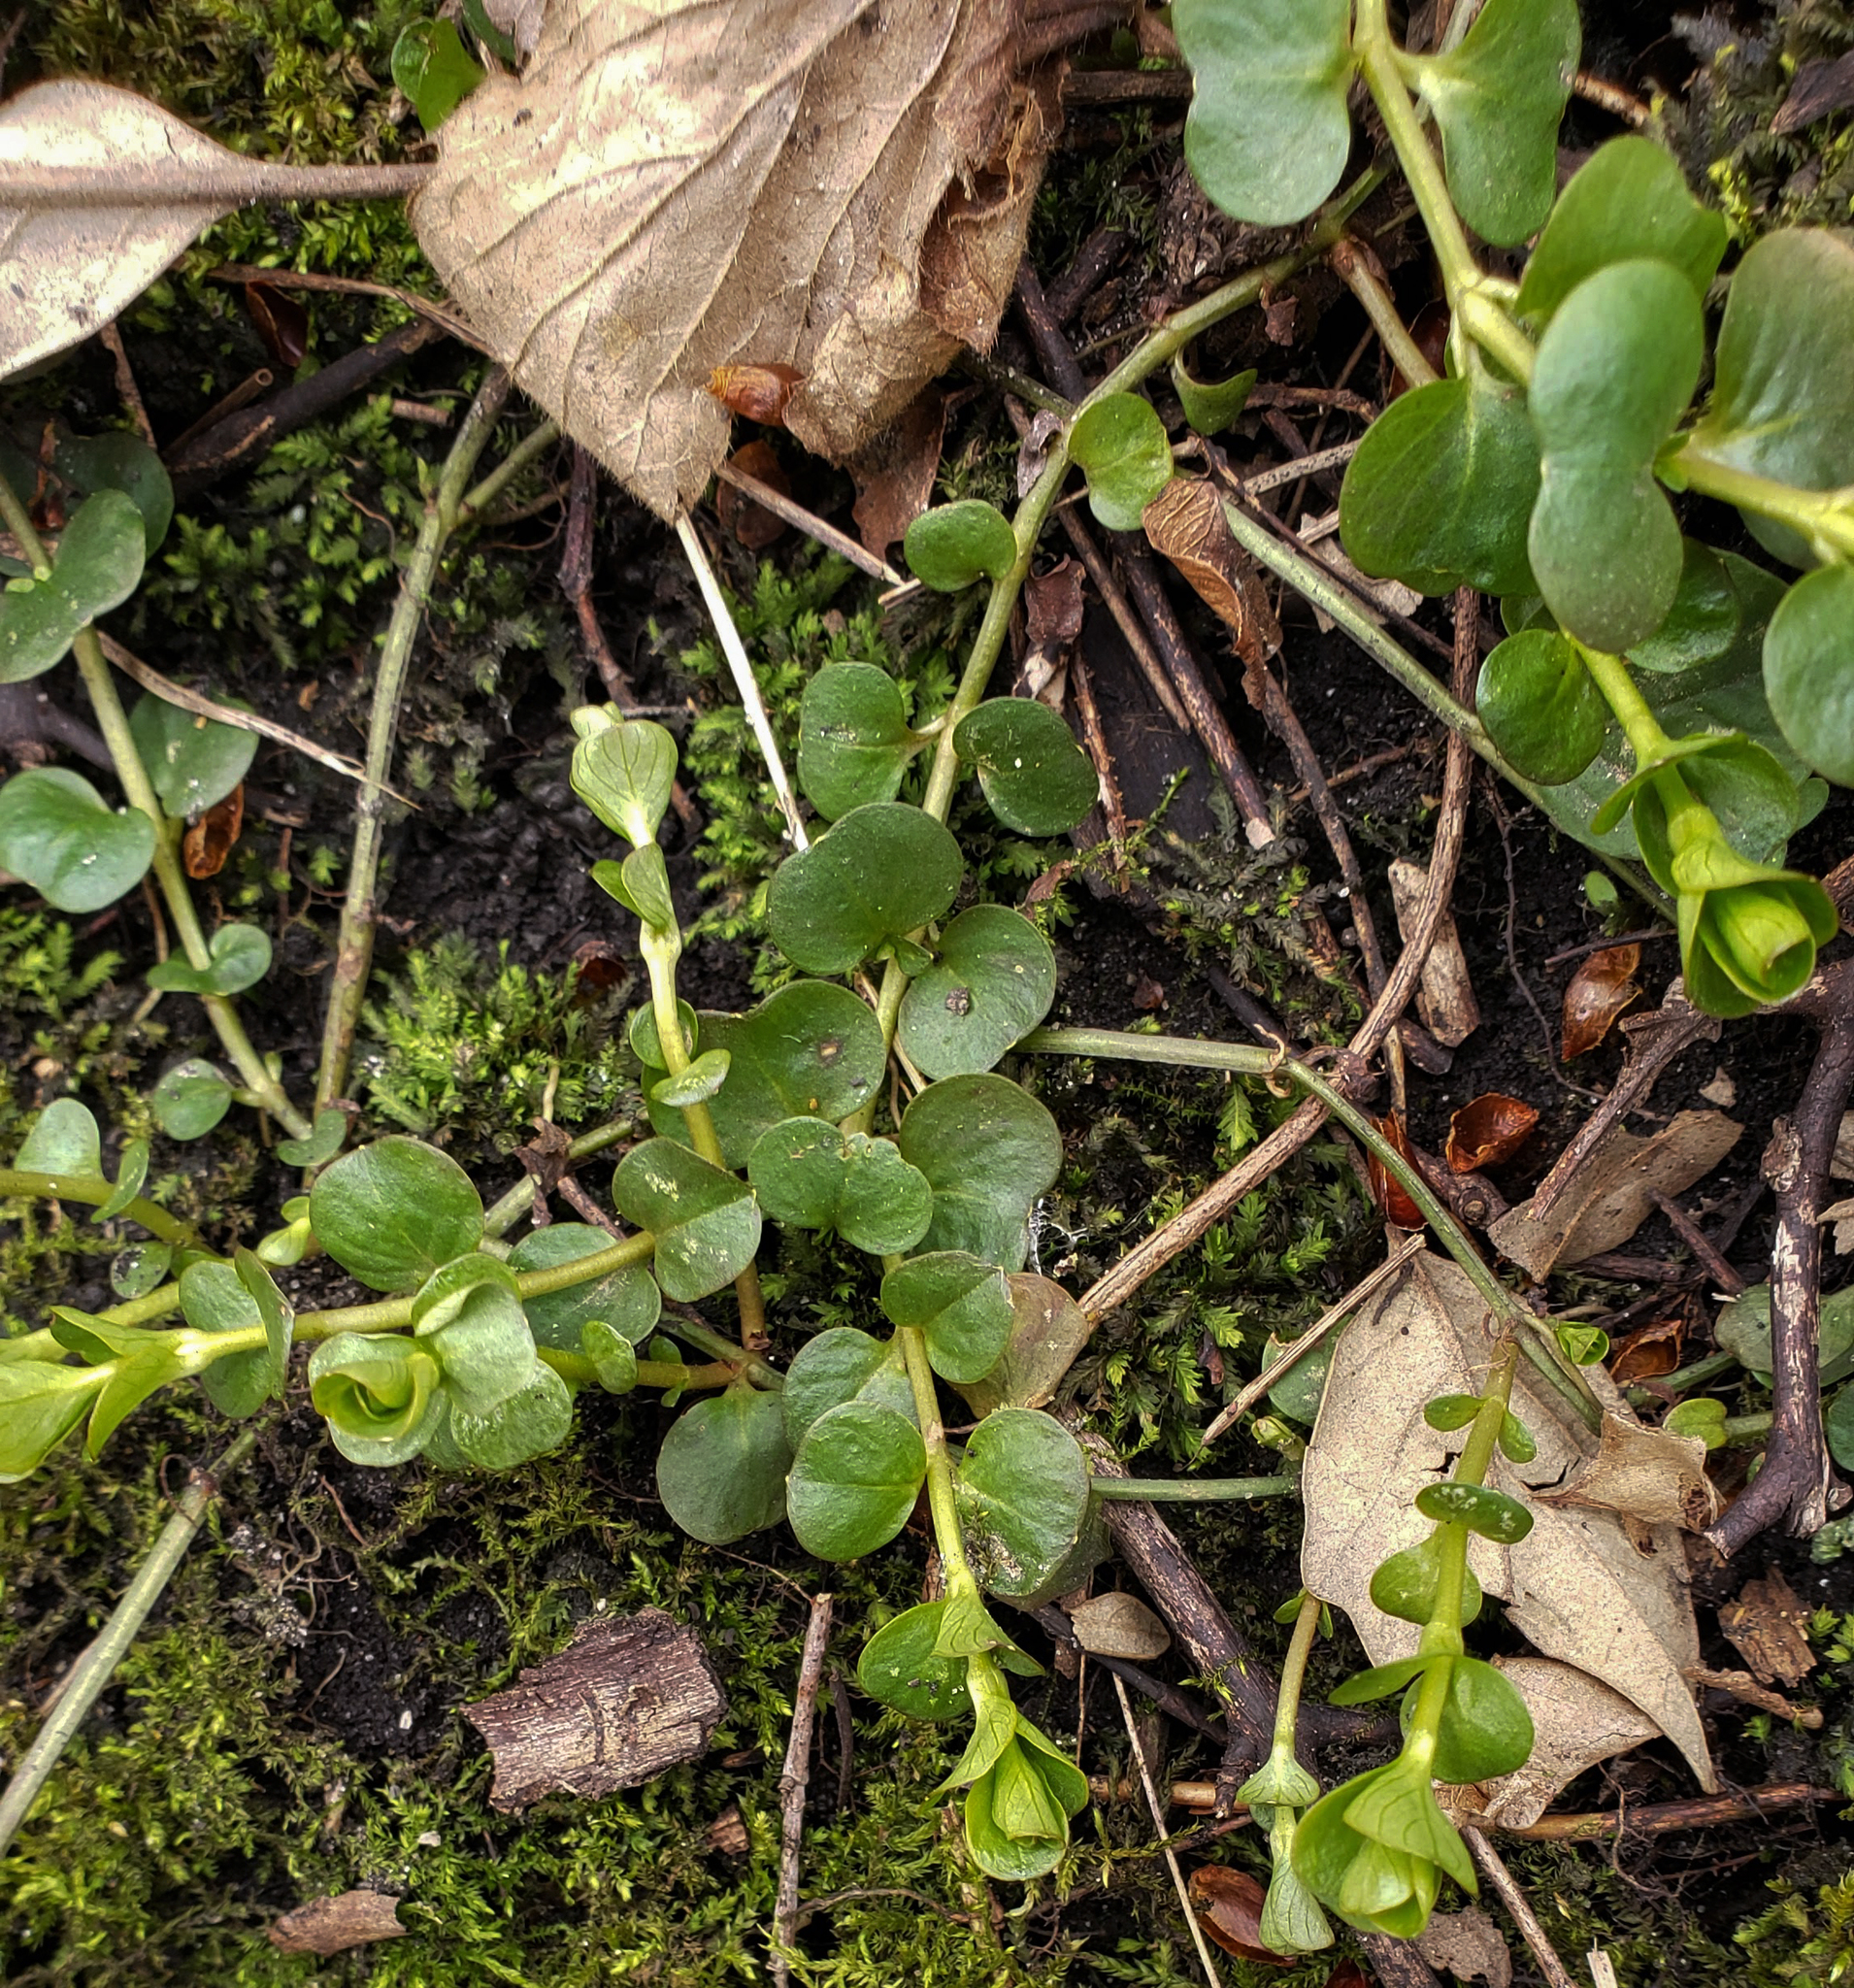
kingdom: Plantae
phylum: Tracheophyta
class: Magnoliopsida
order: Ericales
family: Primulaceae
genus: Lysimachia
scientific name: Lysimachia nummularia
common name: Moneywort
